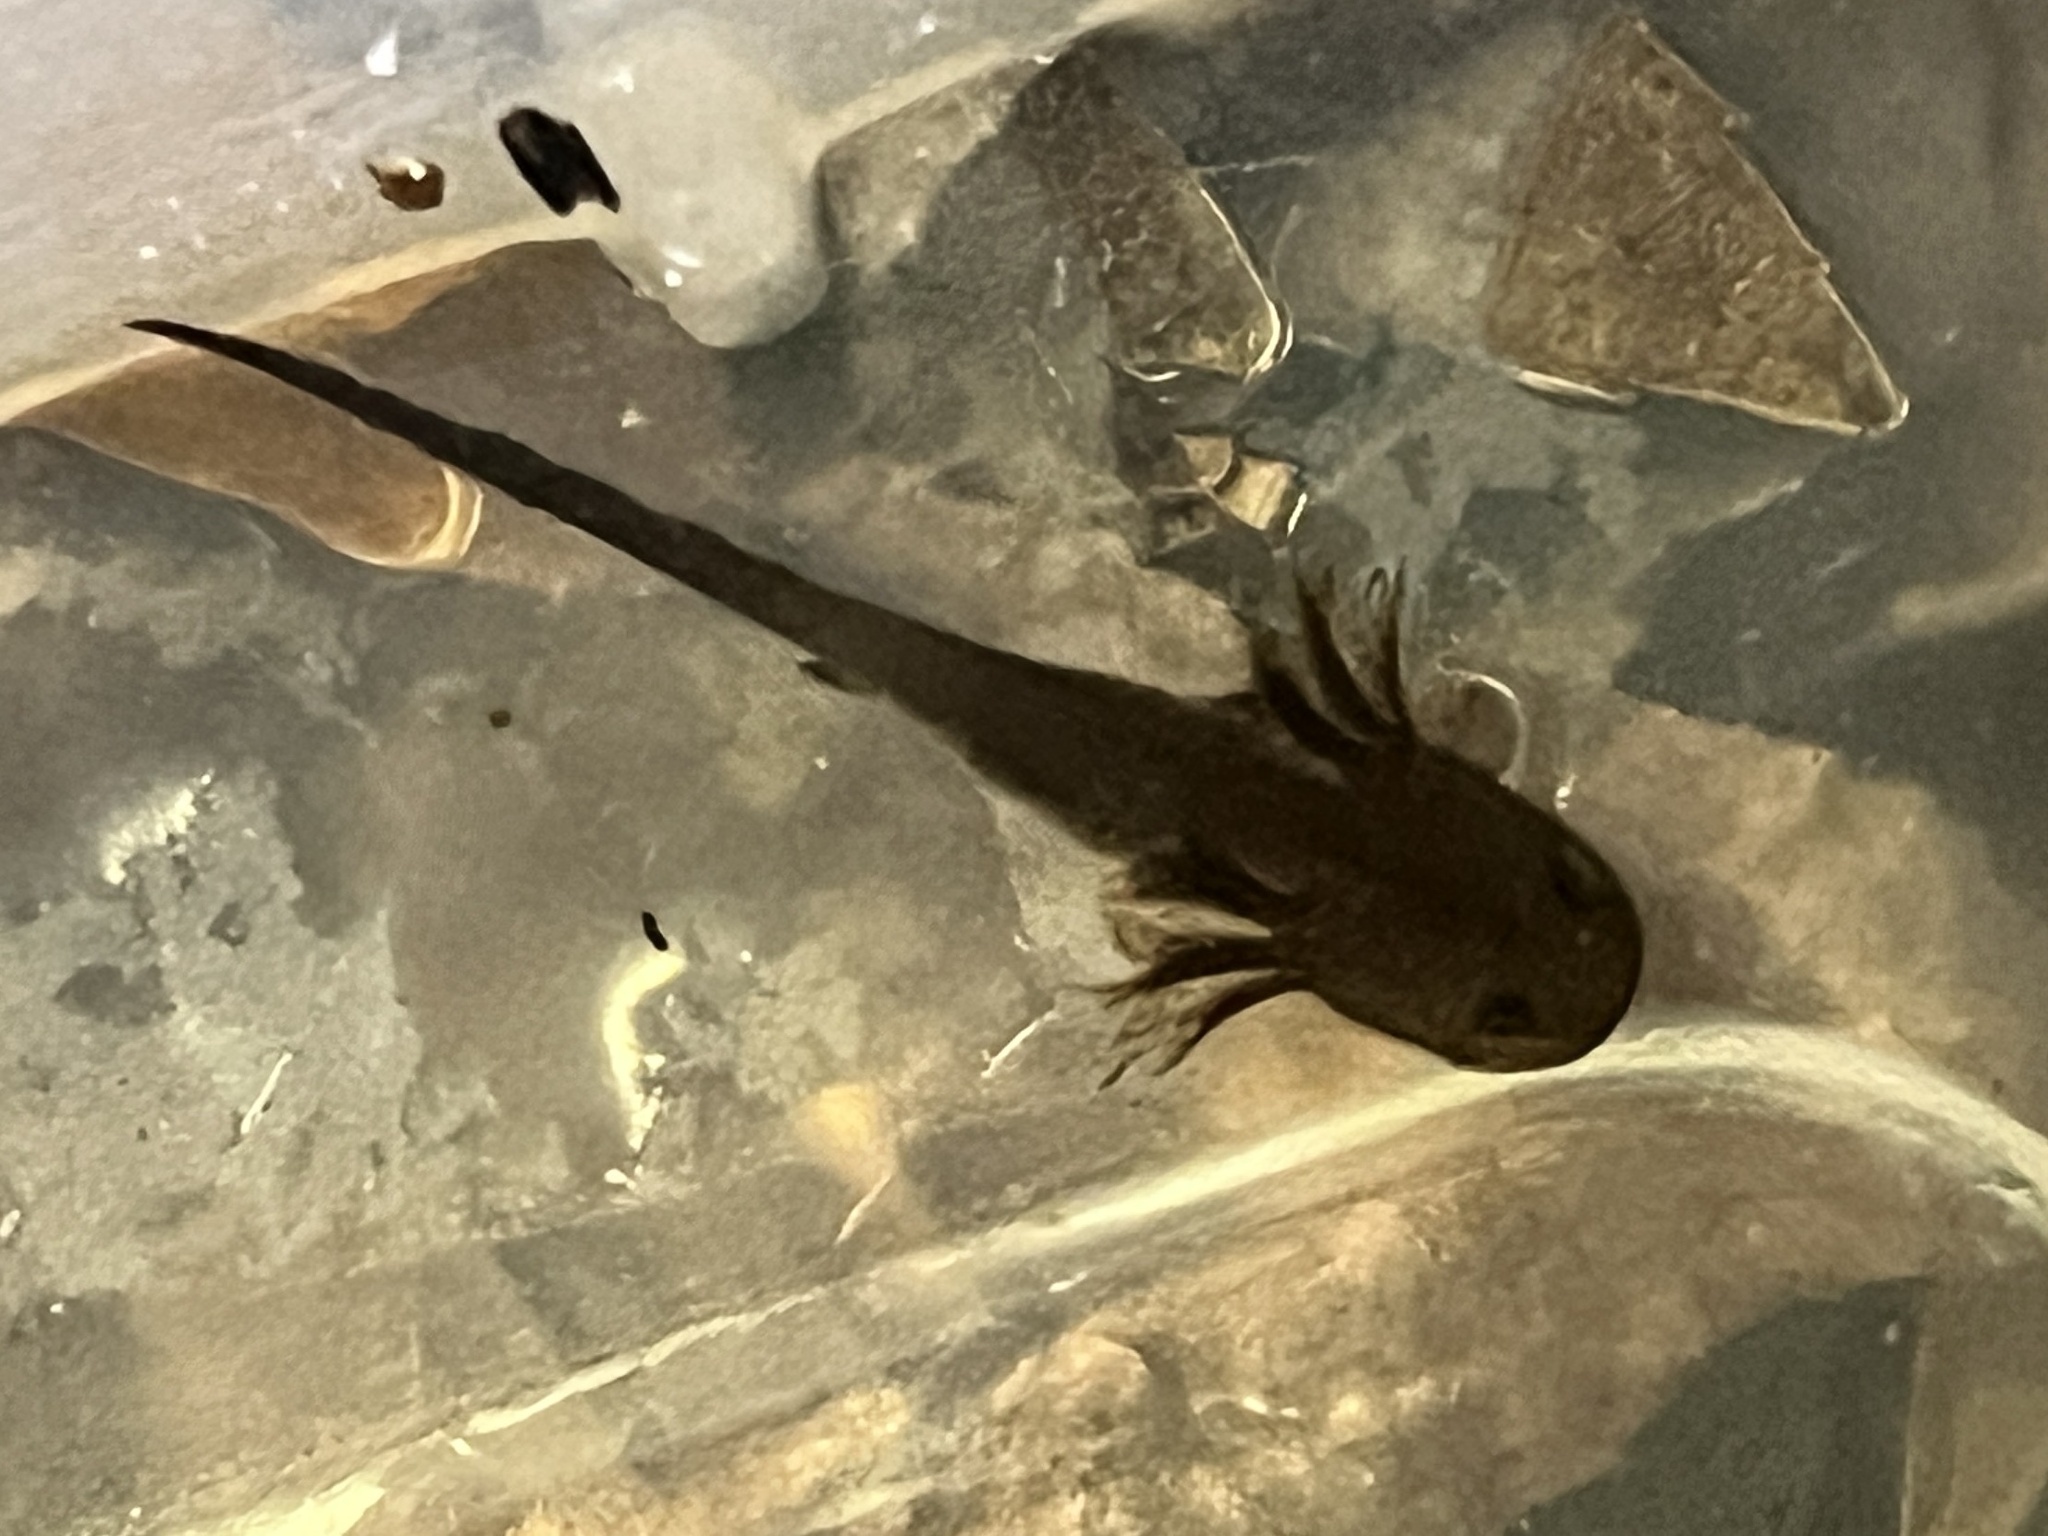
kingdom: Animalia
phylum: Chordata
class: Amphibia
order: Caudata
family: Ambystomatidae
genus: Ambystoma
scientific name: Ambystoma opacum
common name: Marbled salamander
